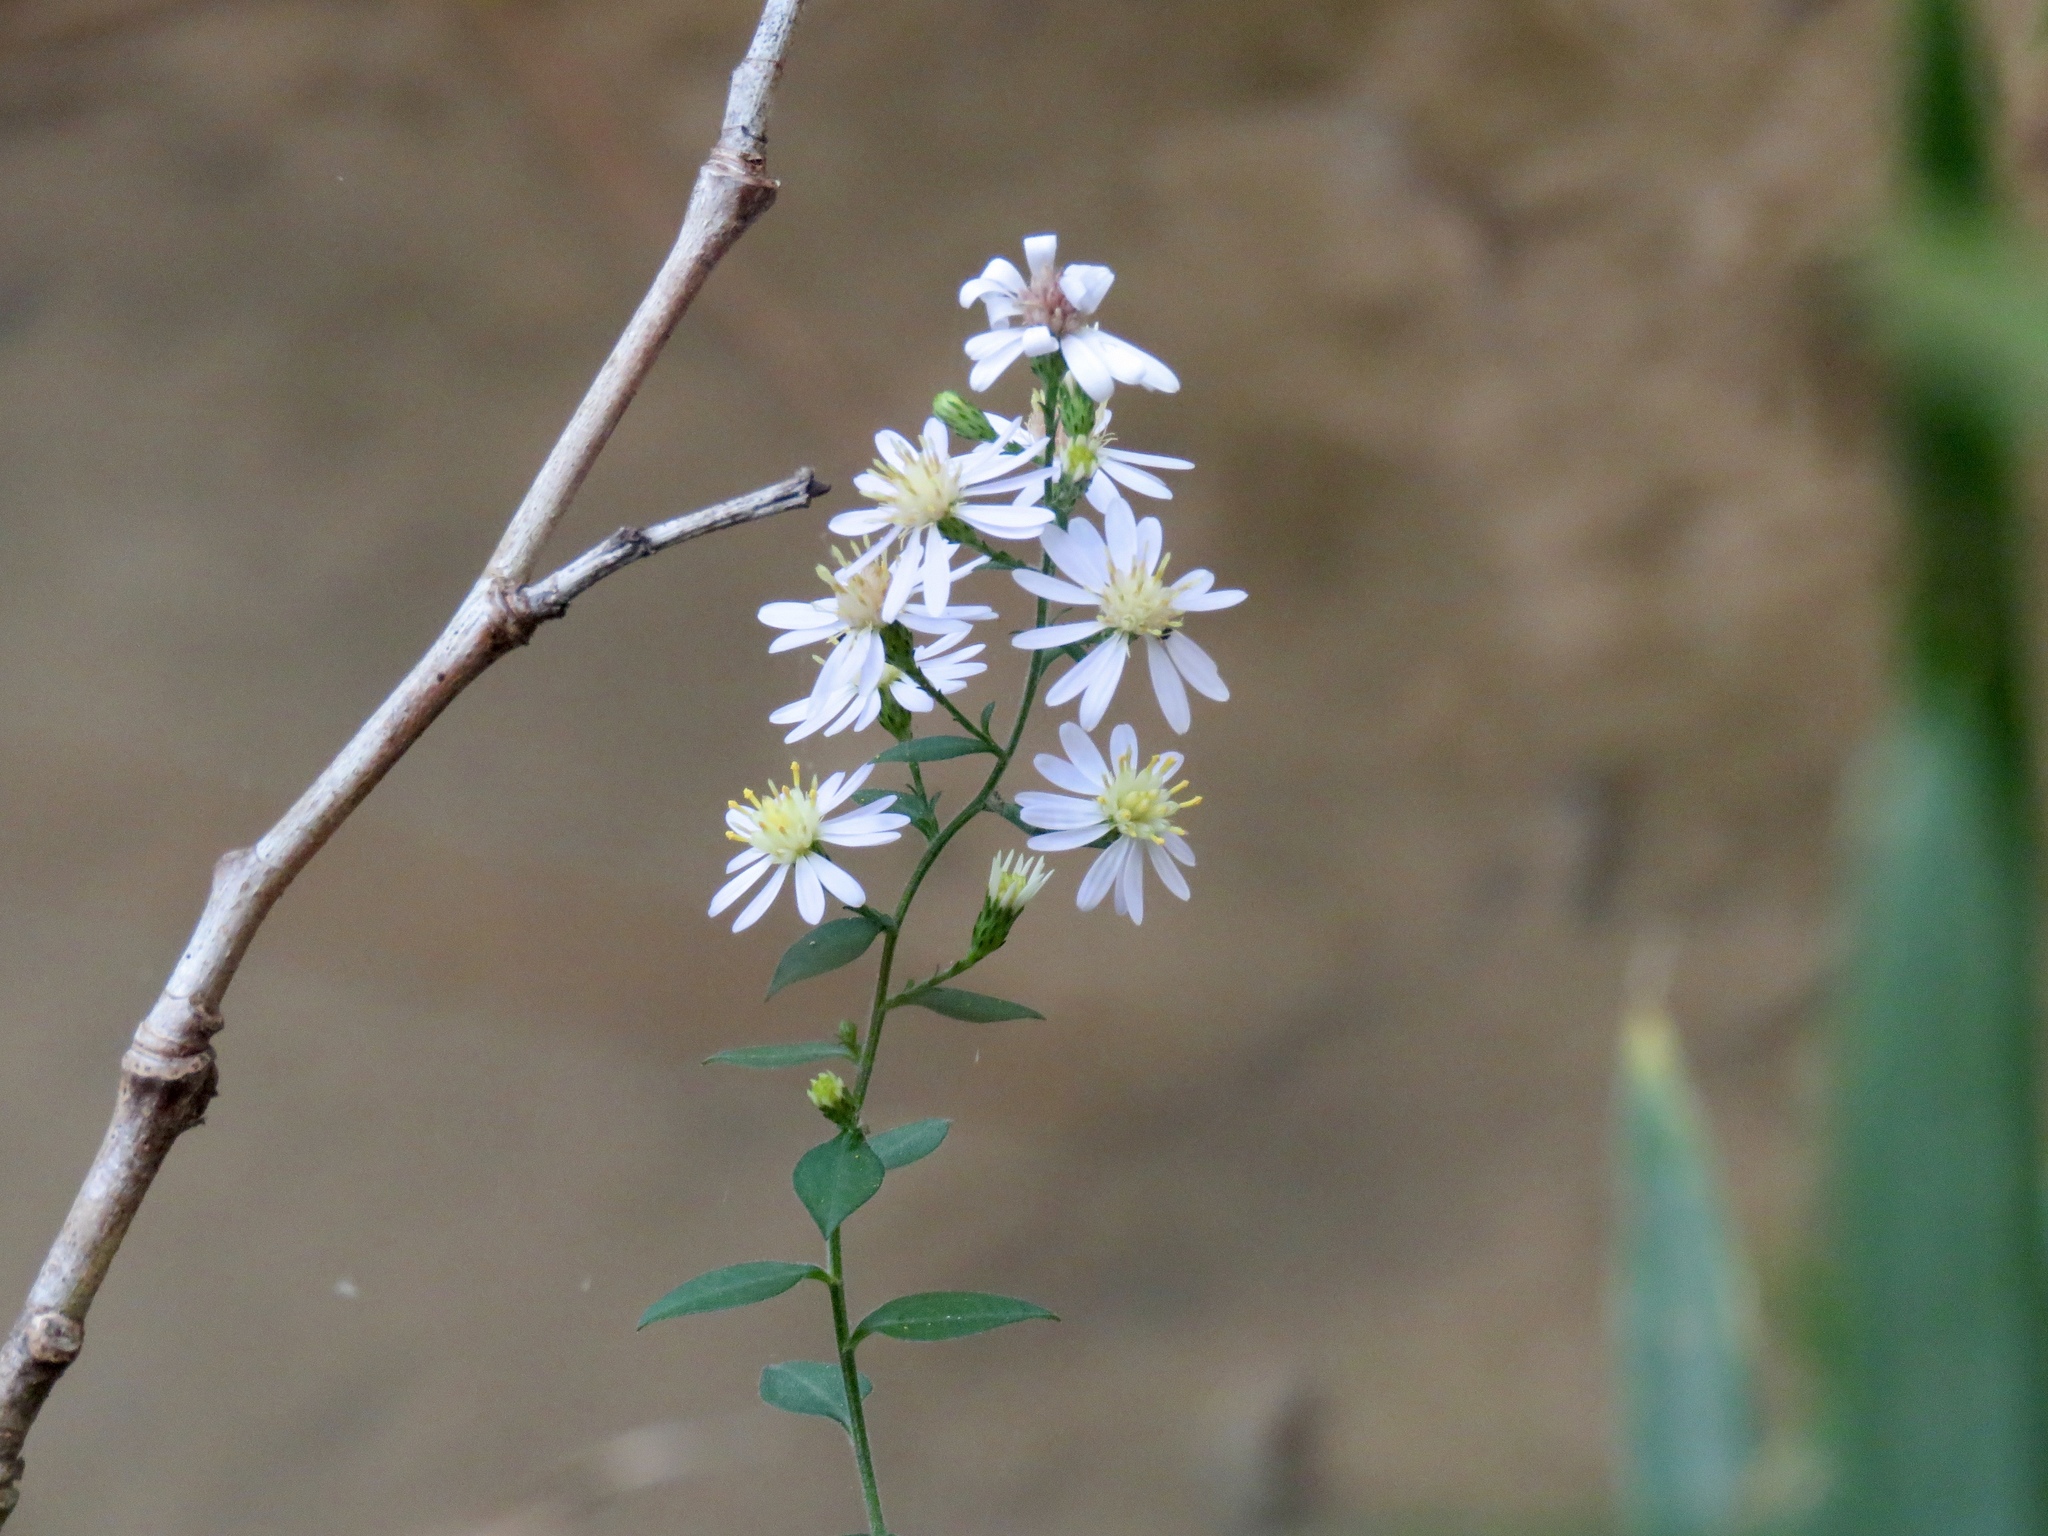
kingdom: Plantae
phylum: Tracheophyta
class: Magnoliopsida
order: Asterales
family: Asteraceae
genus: Symphyotrichum
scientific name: Symphyotrichum drummondii
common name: Drummond's aster
